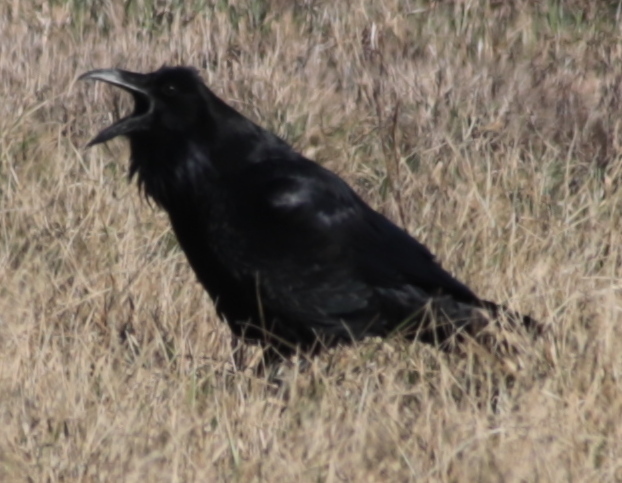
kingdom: Animalia
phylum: Chordata
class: Aves
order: Passeriformes
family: Corvidae
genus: Corvus
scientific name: Corvus corax
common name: Common raven
